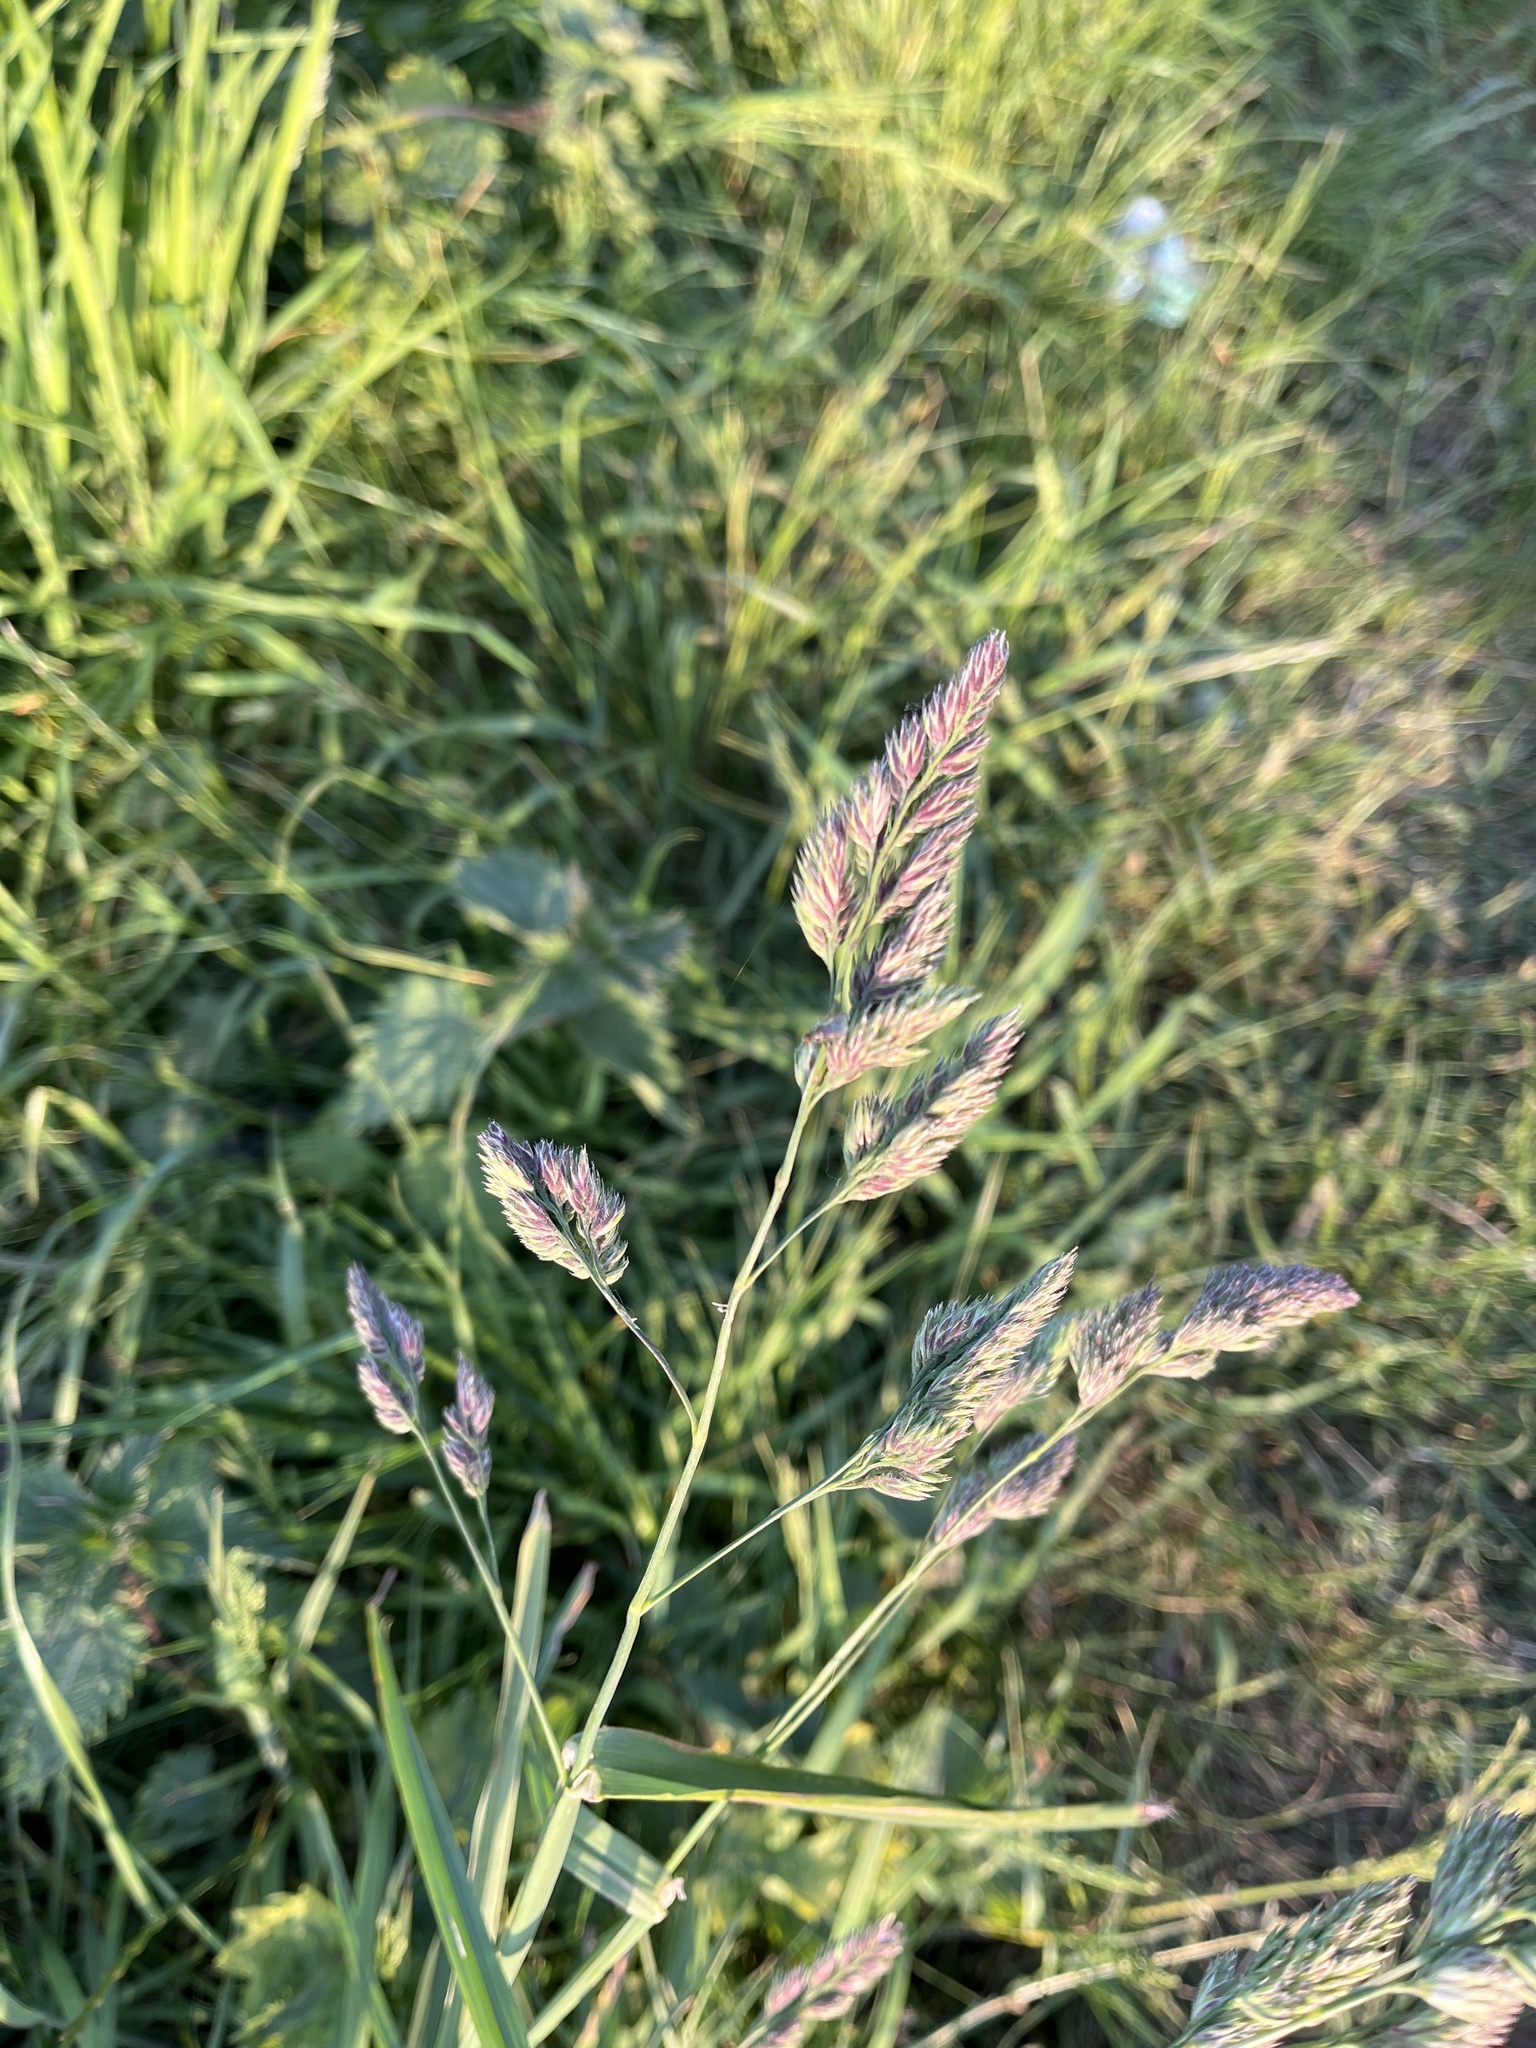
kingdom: Plantae
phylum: Tracheophyta
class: Liliopsida
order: Poales
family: Poaceae
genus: Dactylis
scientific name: Dactylis glomerata
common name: Orchardgrass
